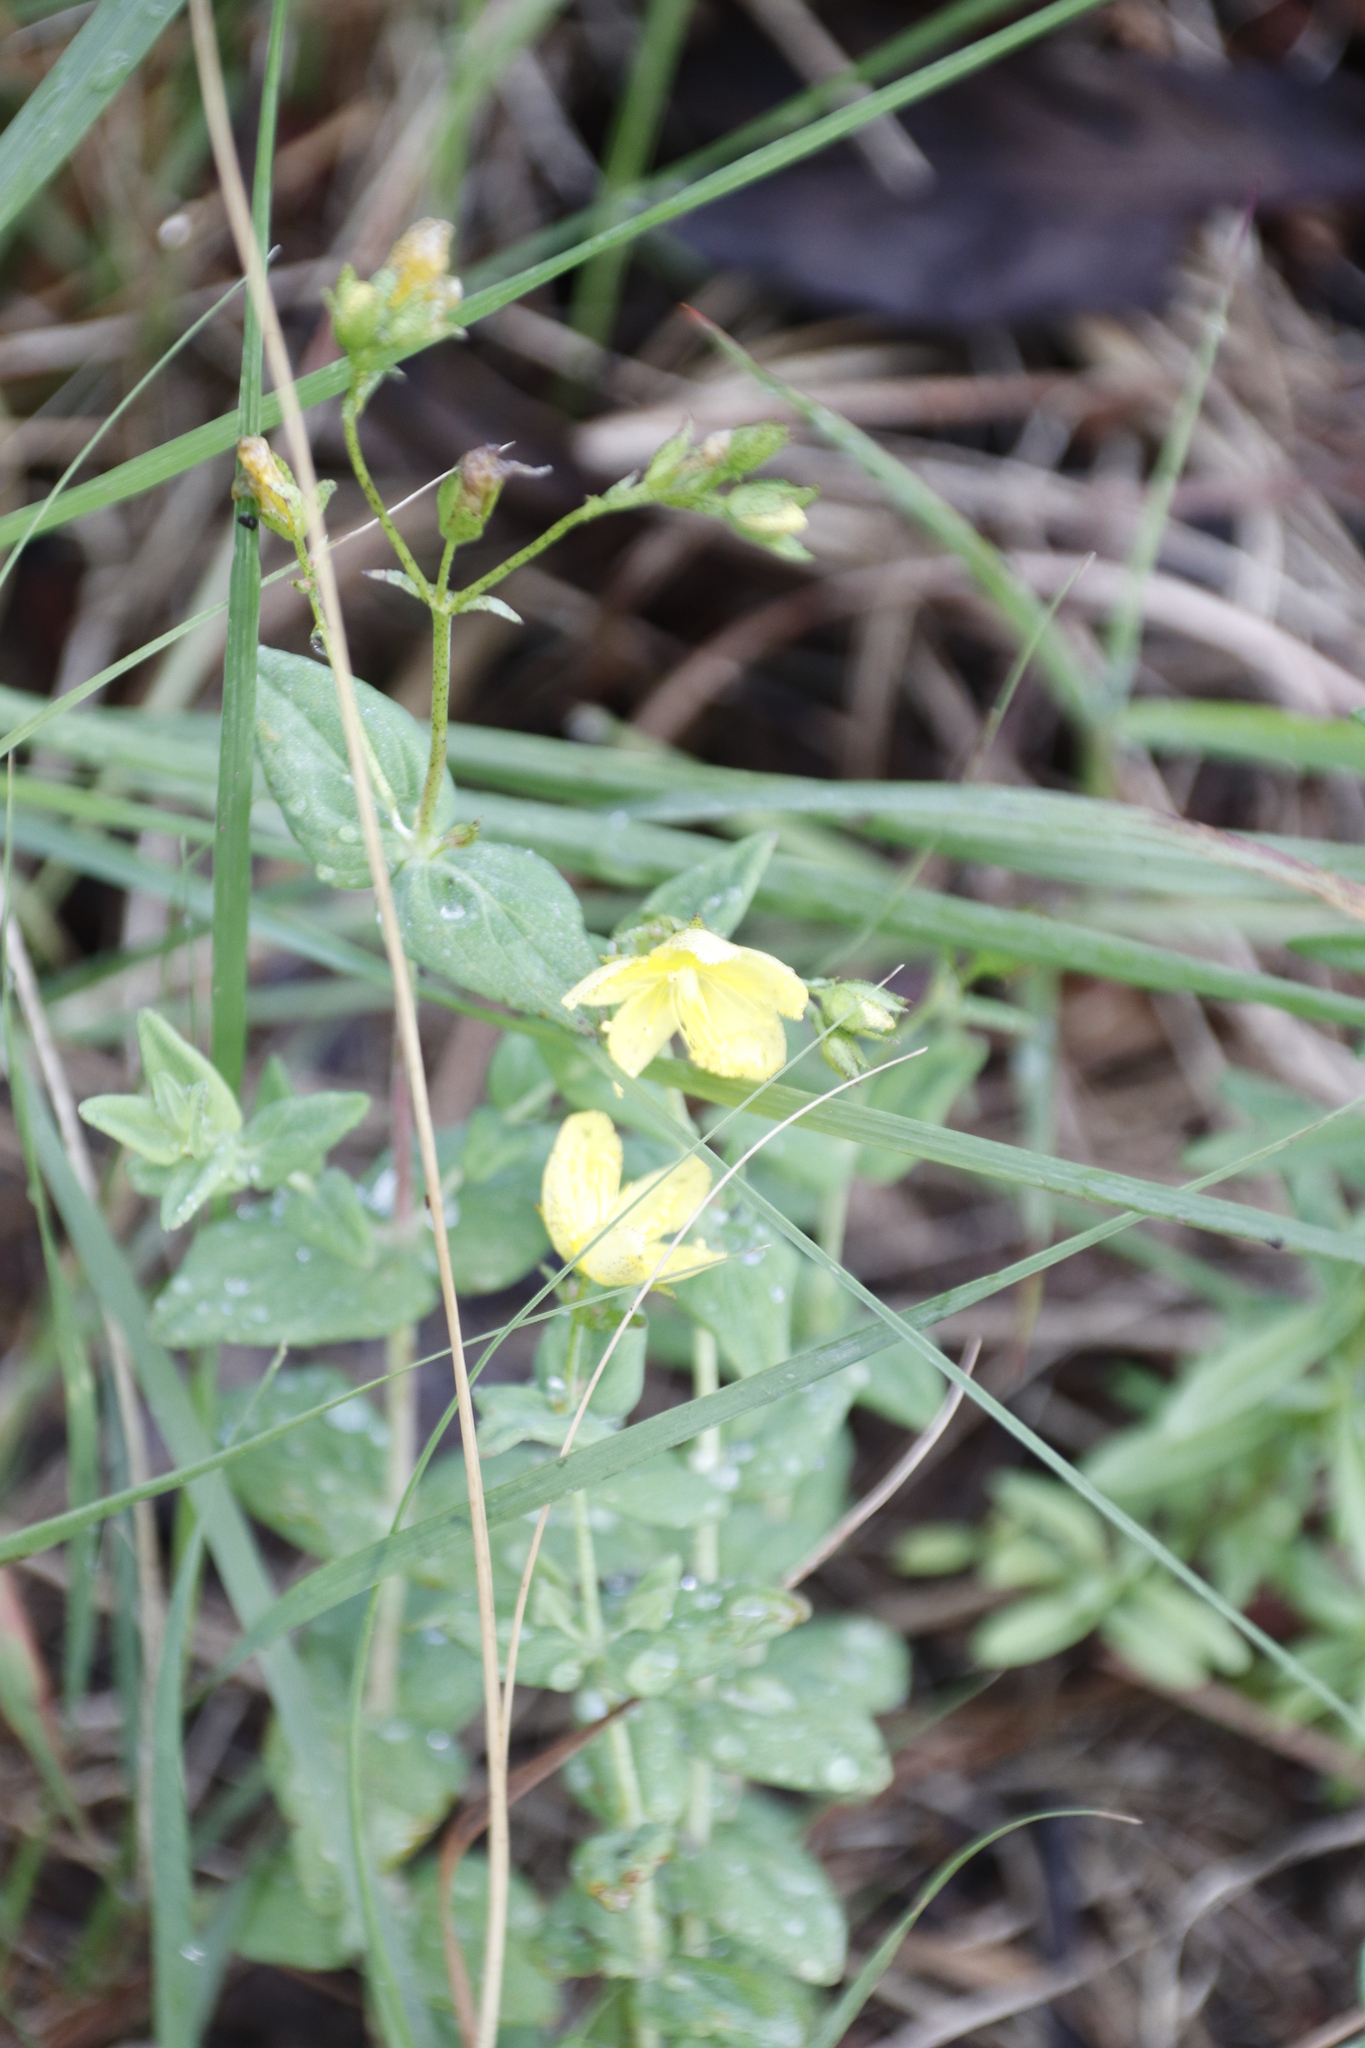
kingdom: Plantae
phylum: Tracheophyta
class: Magnoliopsida
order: Malpighiales
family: Hypericaceae
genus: Hypericum
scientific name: Hypericum aethiopicum
